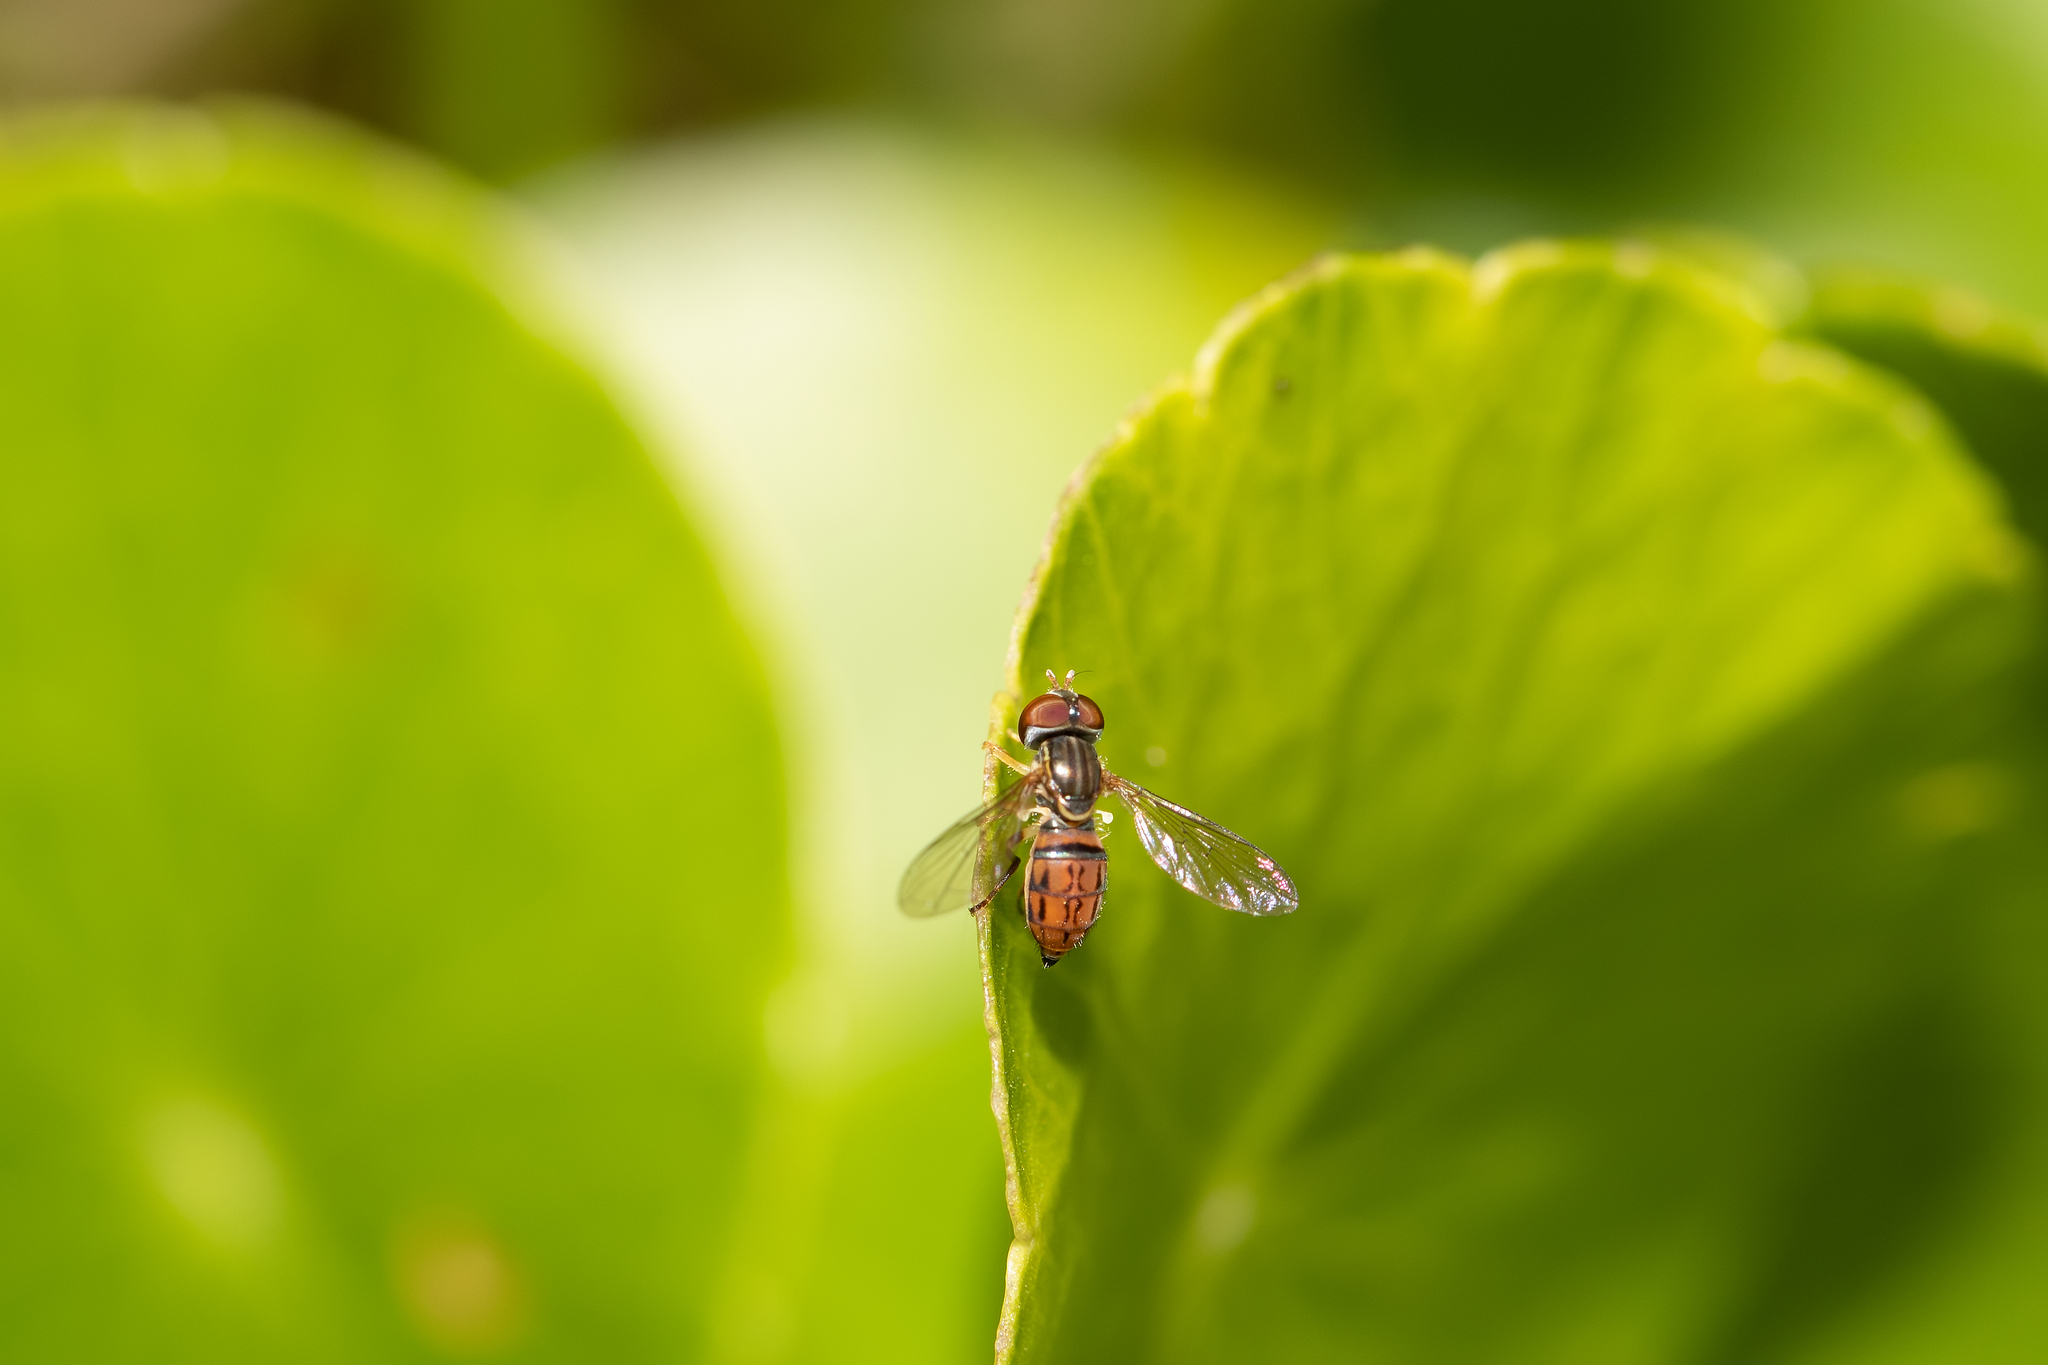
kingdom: Animalia
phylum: Arthropoda
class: Insecta
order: Diptera
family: Syrphidae
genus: Toxomerus
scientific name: Toxomerus boscii
